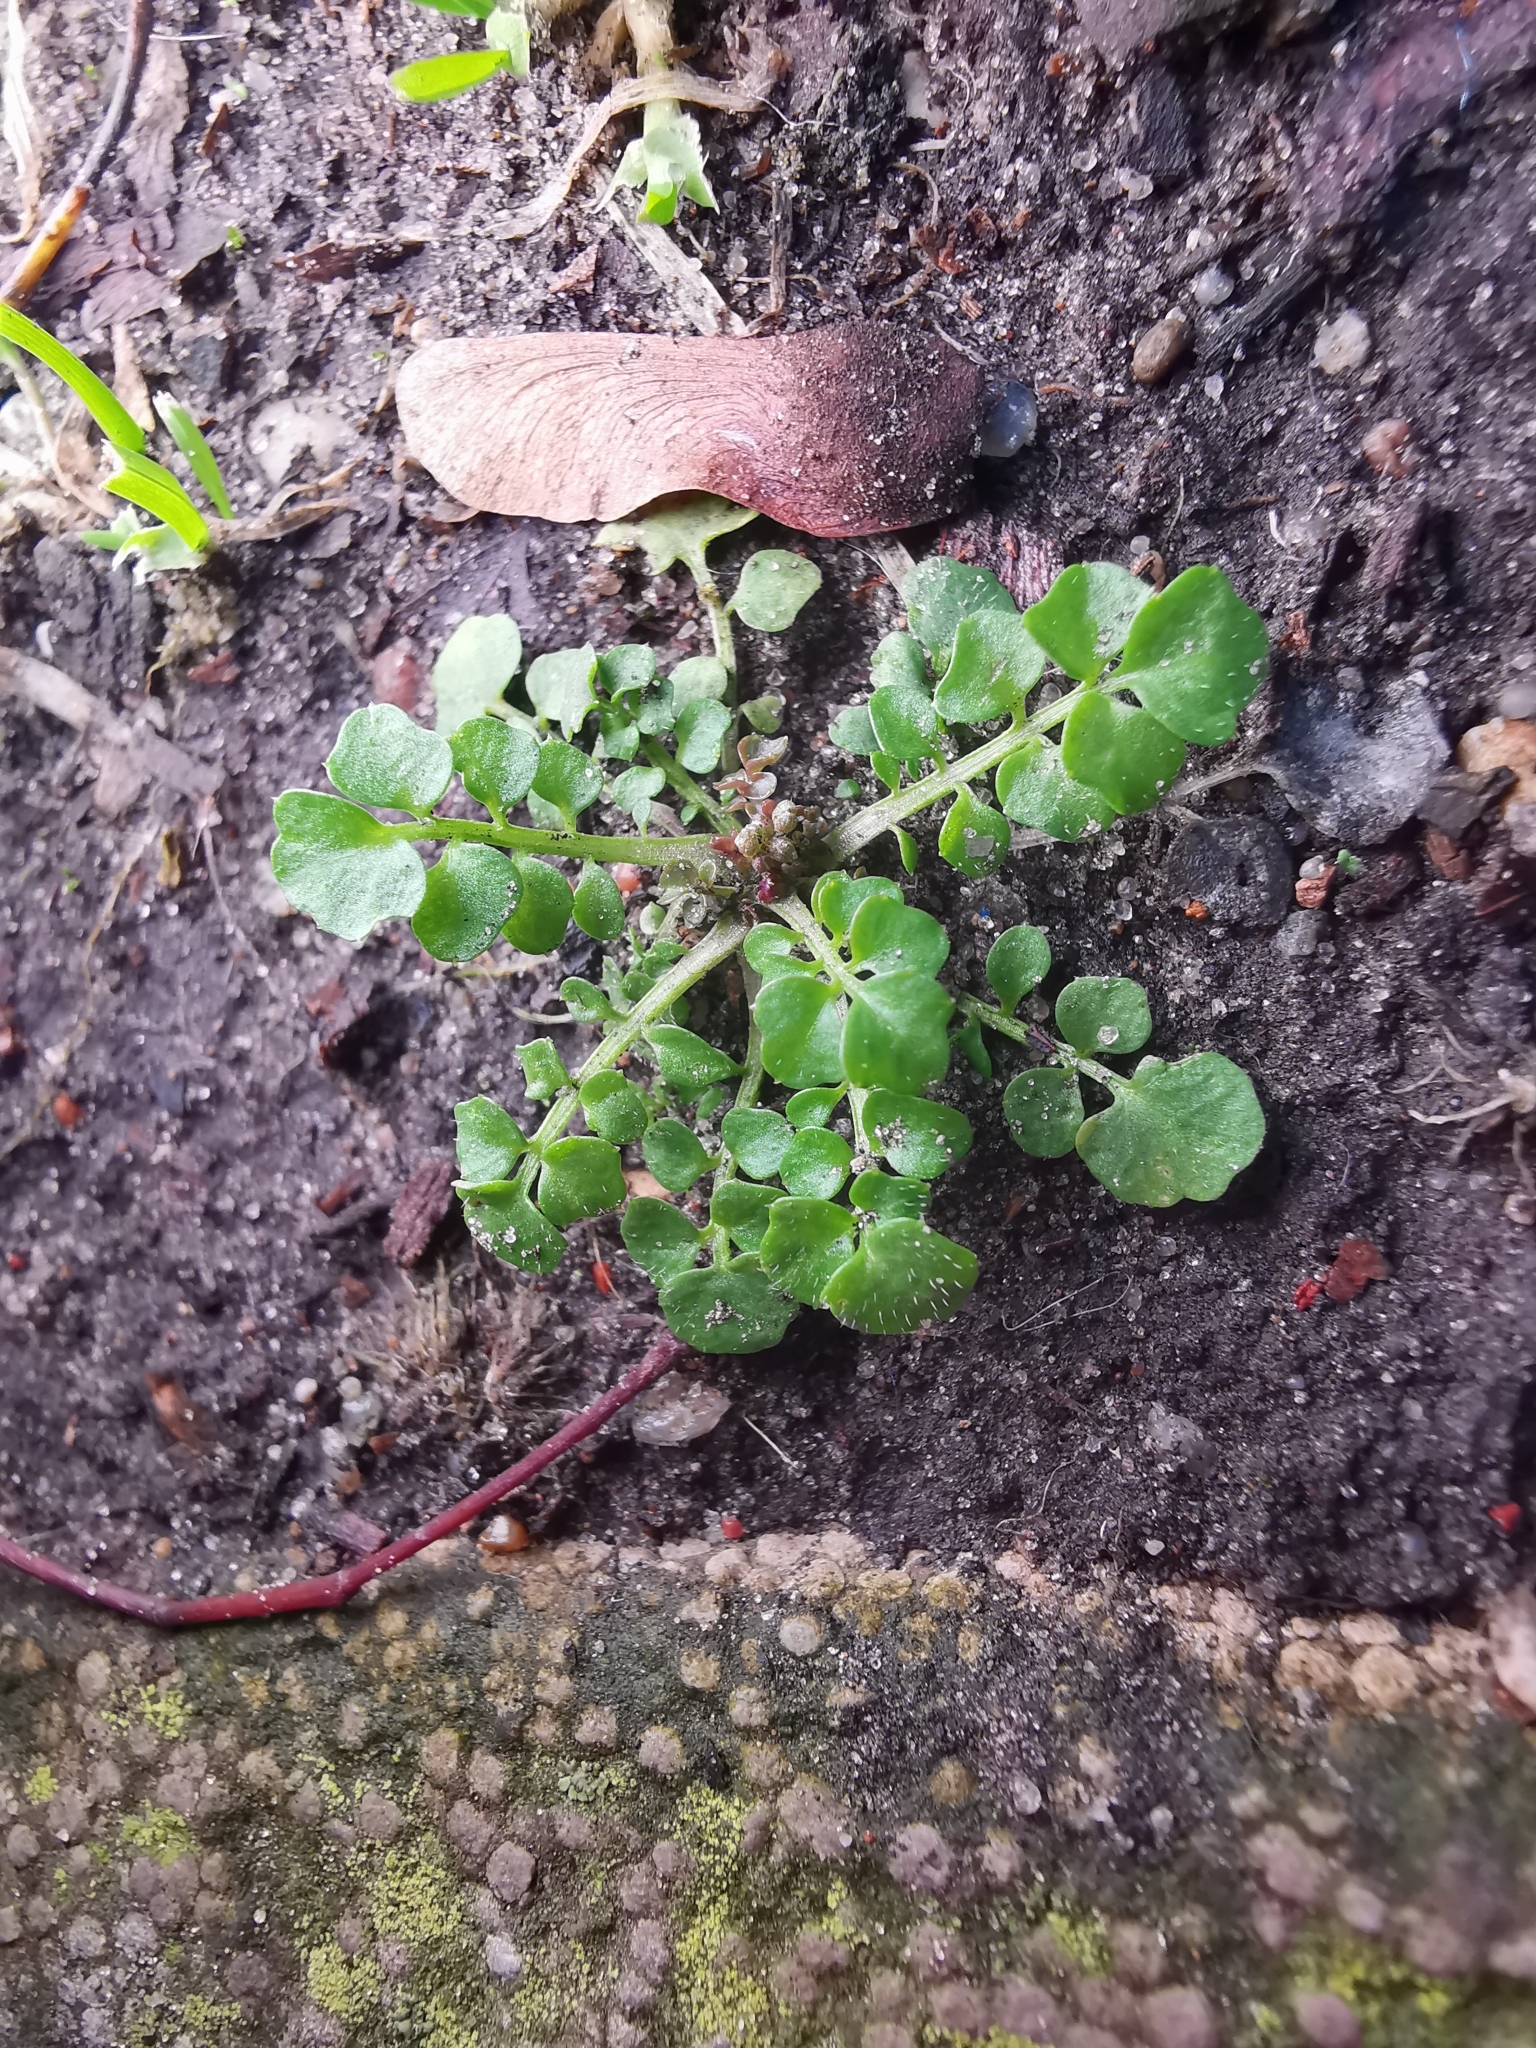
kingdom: Plantae
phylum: Tracheophyta
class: Magnoliopsida
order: Brassicales
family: Brassicaceae
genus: Cardamine
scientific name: Cardamine hirsuta
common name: Hairy bittercress
